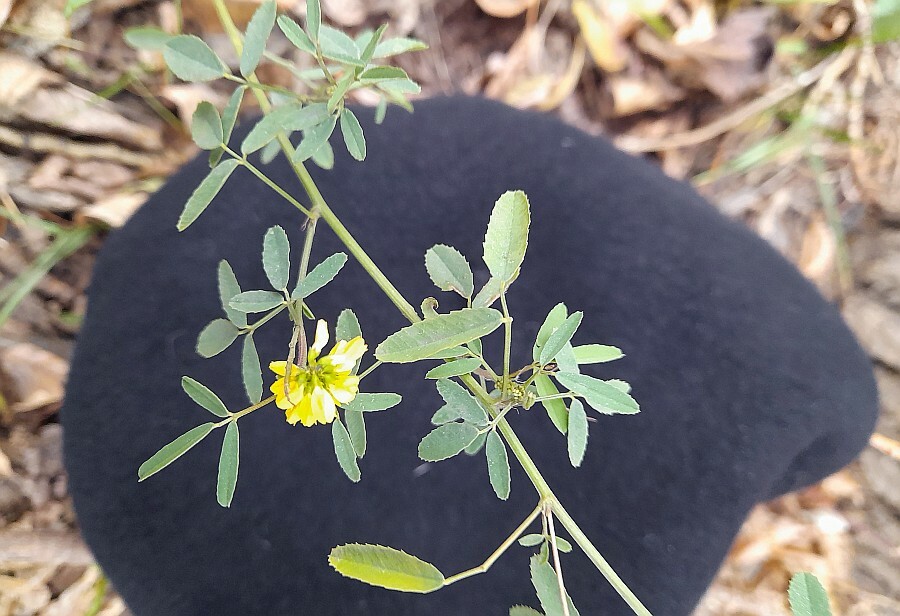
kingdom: Plantae
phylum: Tracheophyta
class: Magnoliopsida
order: Fabales
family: Fabaceae
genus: Melilotus
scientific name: Melilotus officinalis
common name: Sweetclover
